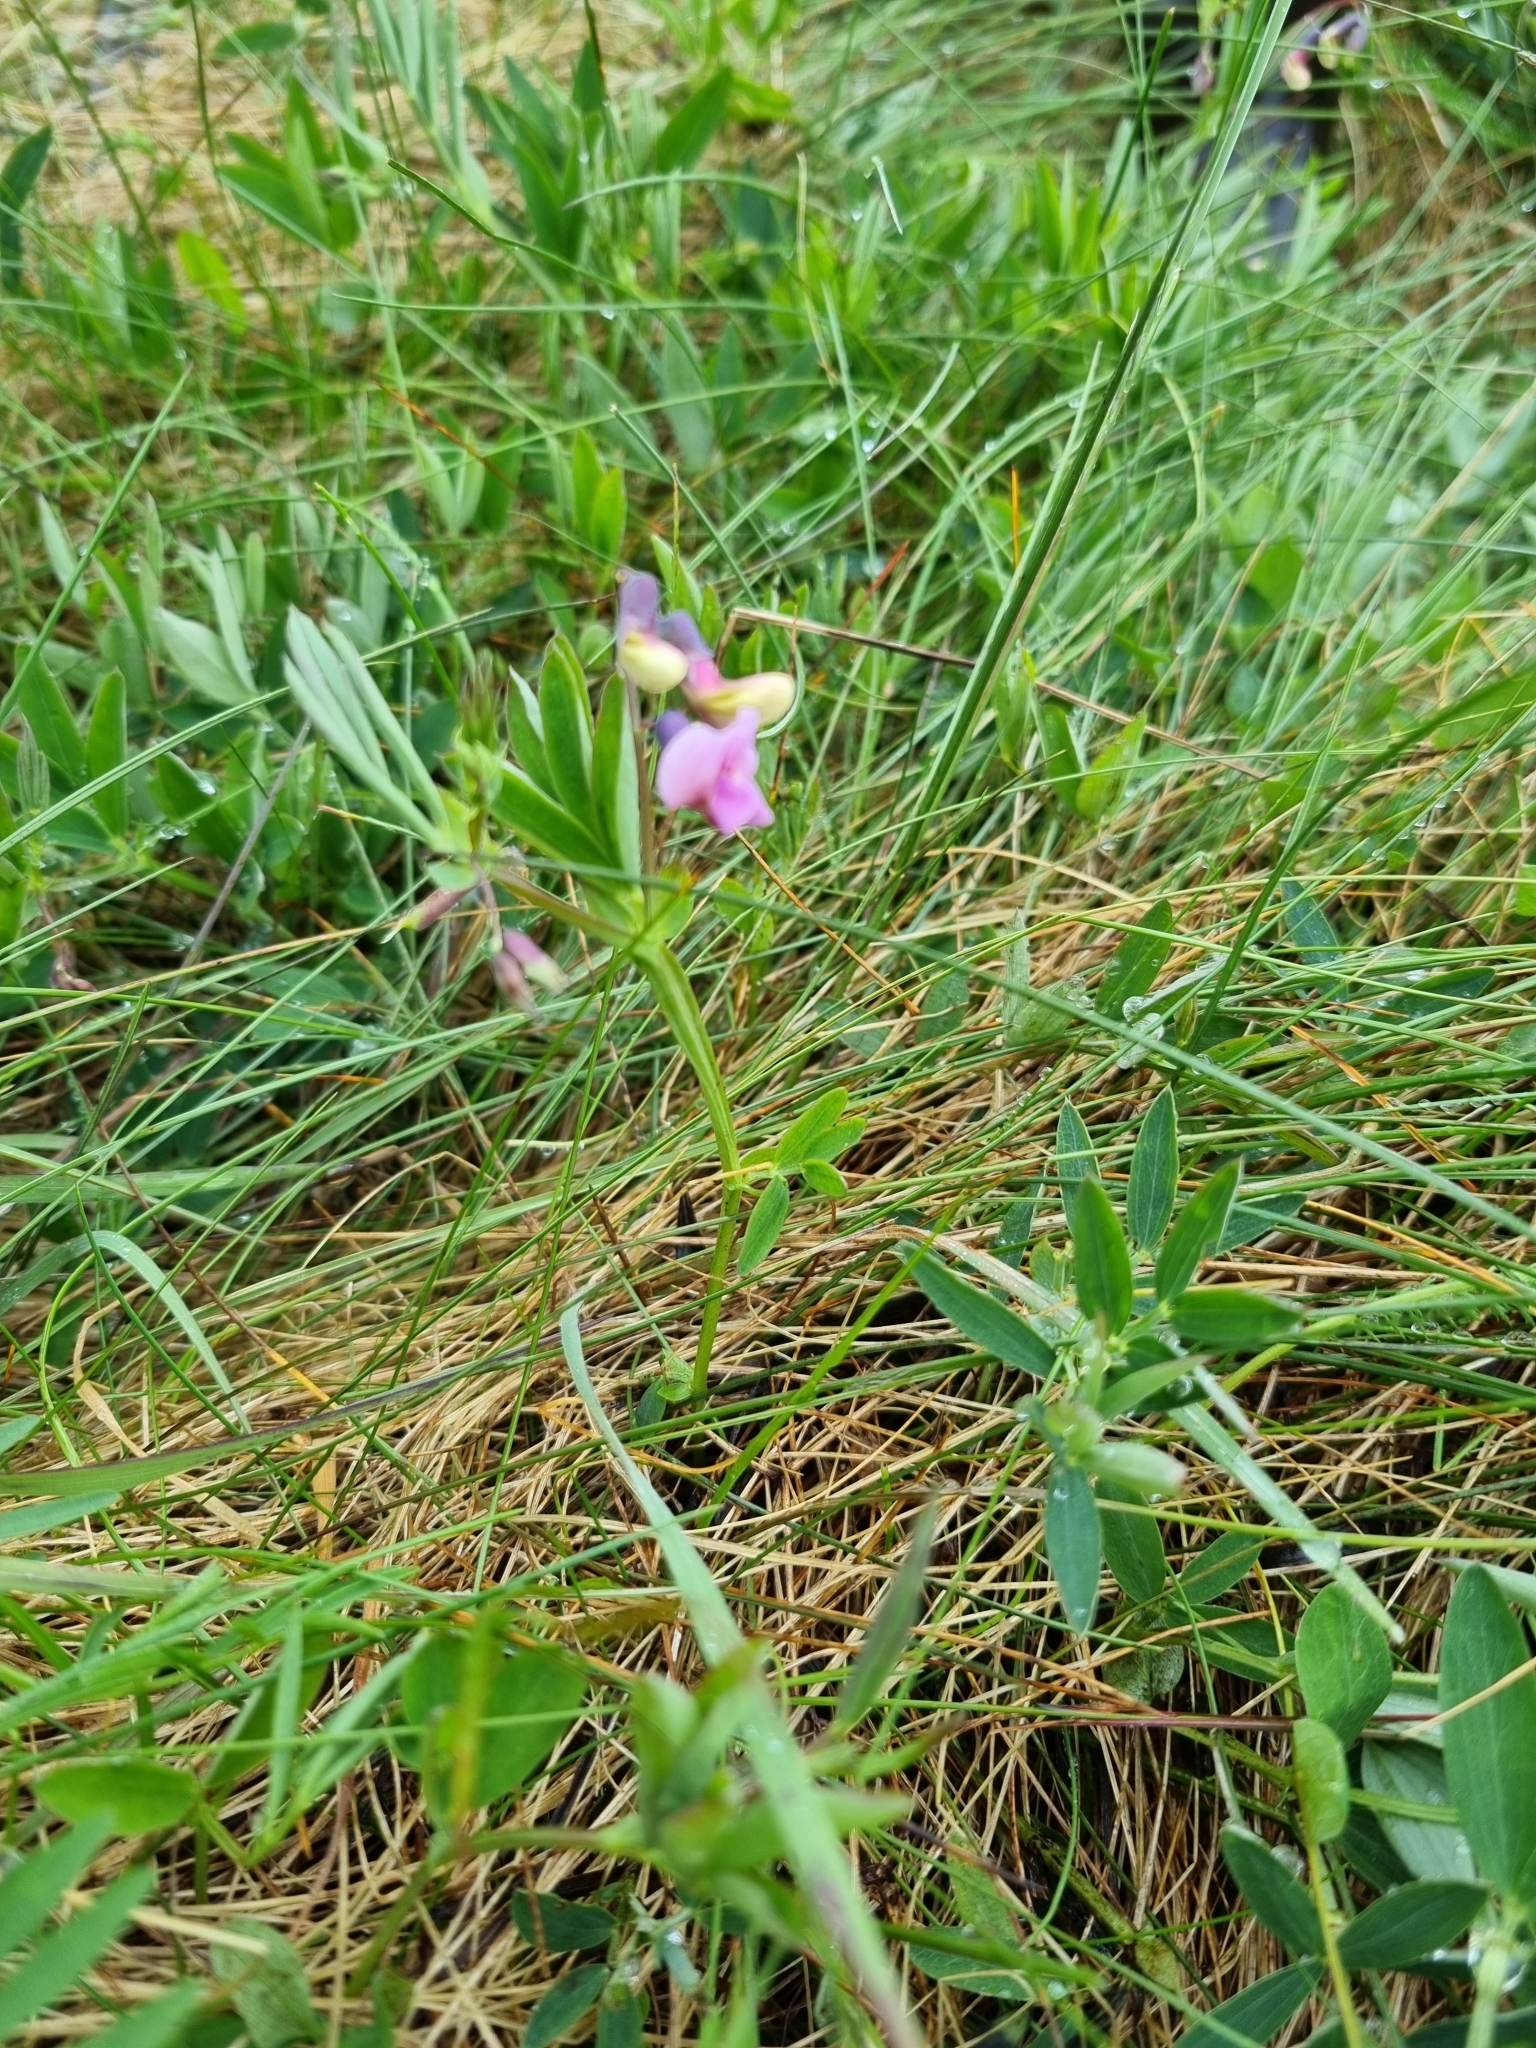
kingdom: Plantae
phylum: Tracheophyta
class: Magnoliopsida
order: Fabales
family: Fabaceae
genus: Lathyrus
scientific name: Lathyrus linifolius
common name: Bitter-vetch
